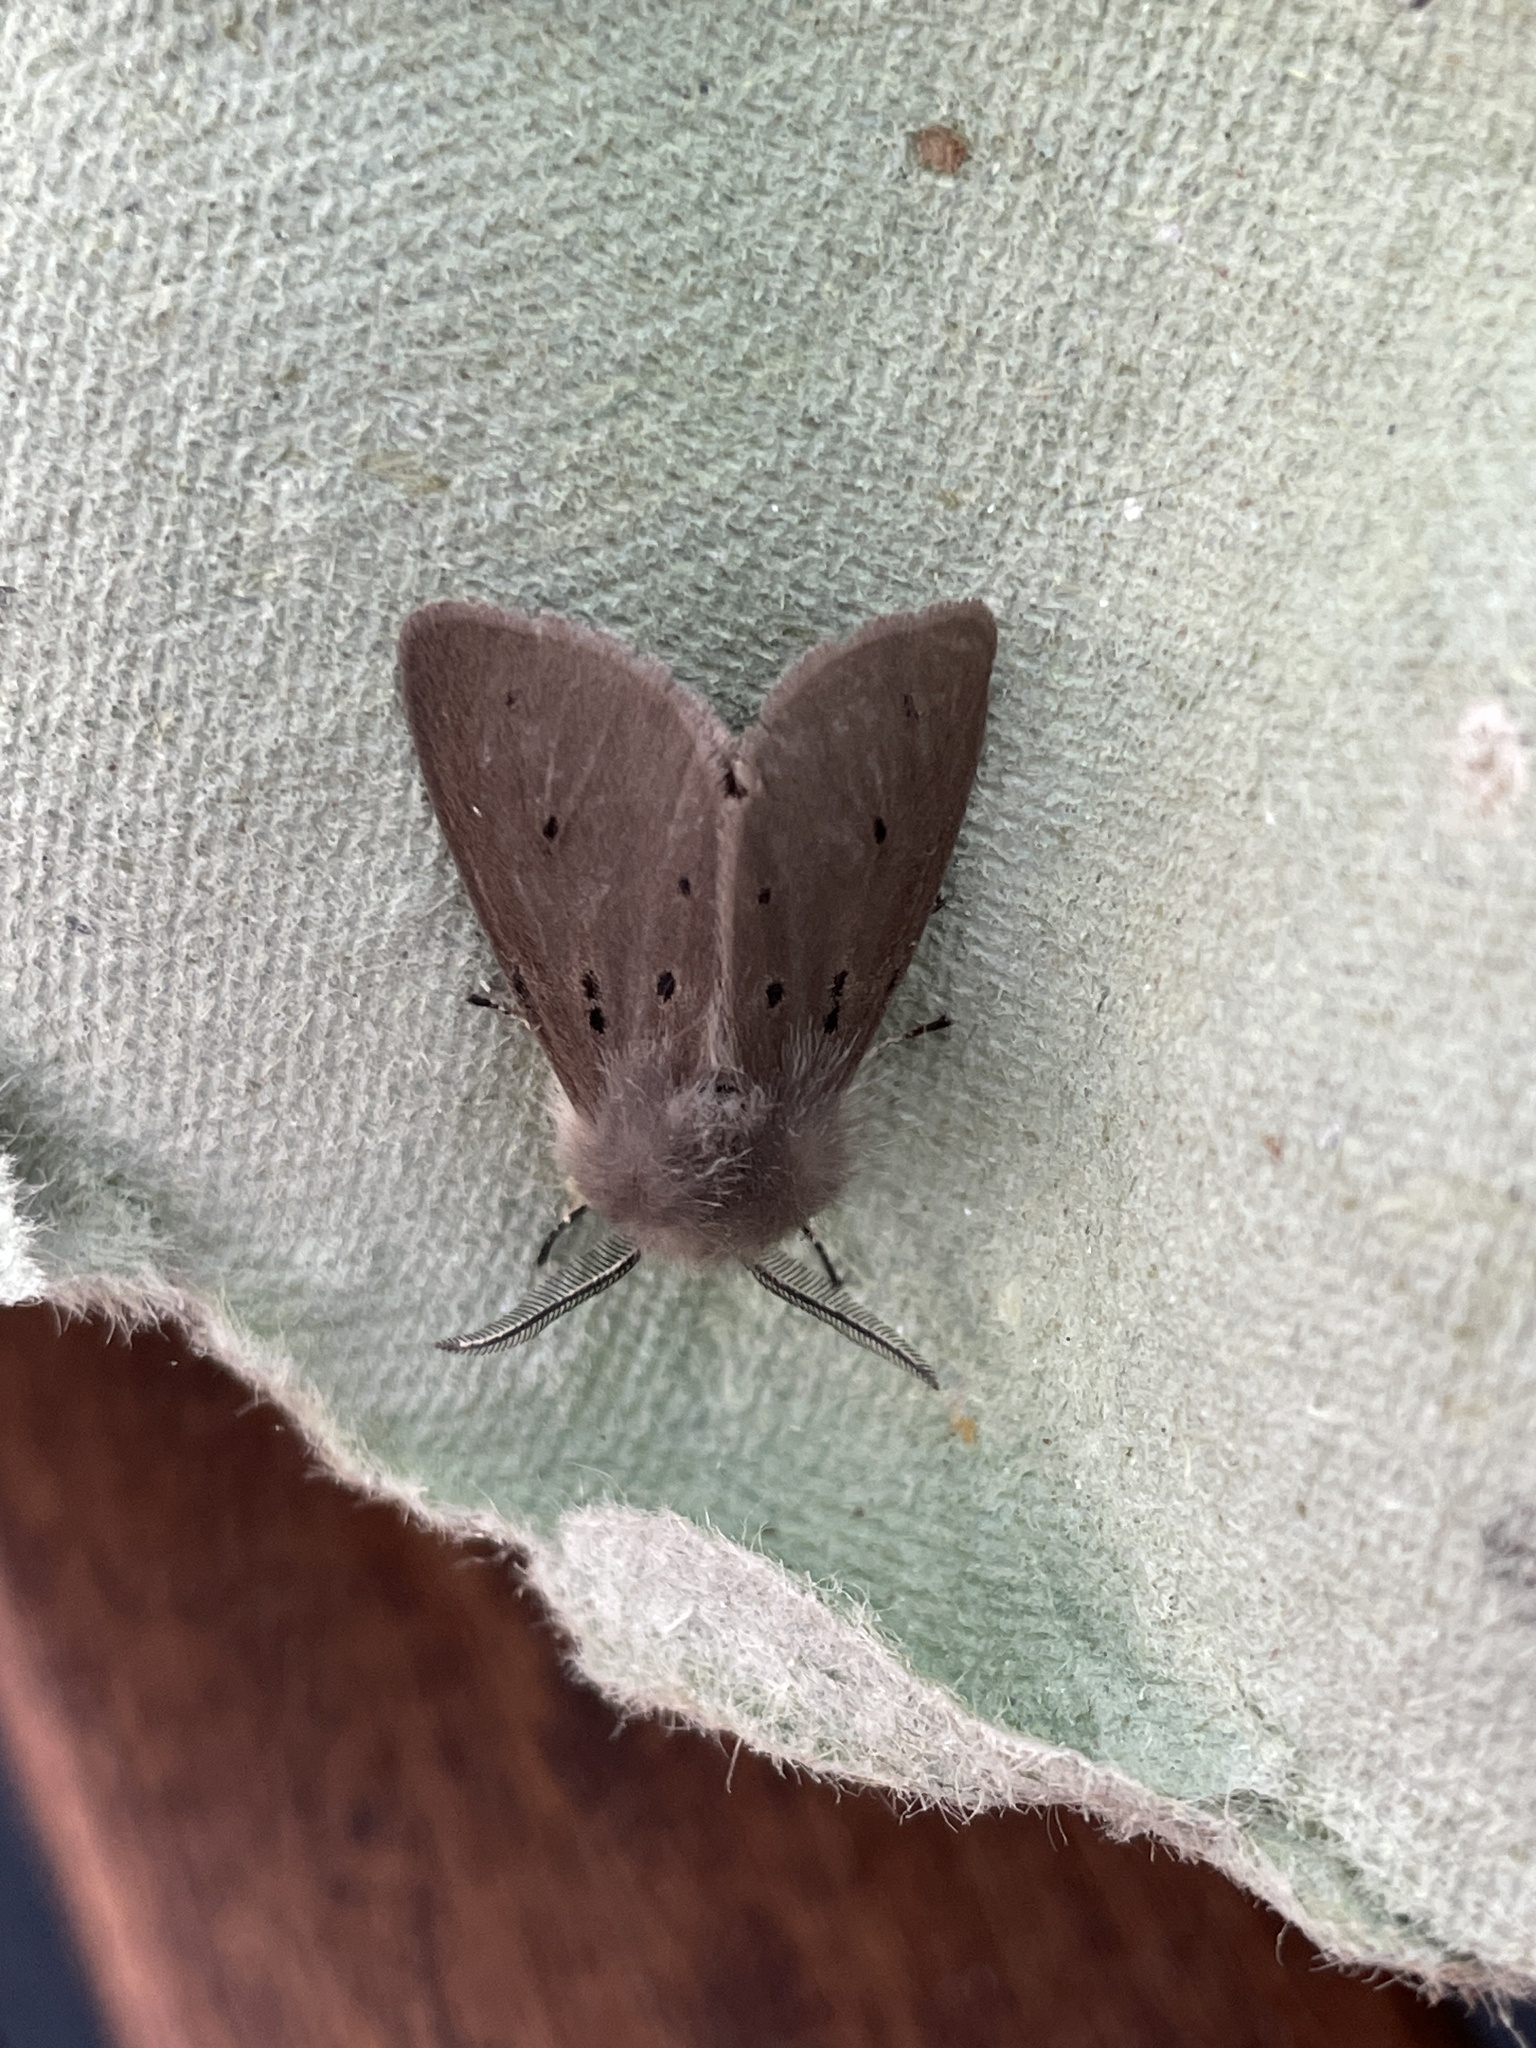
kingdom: Animalia
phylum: Arthropoda
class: Insecta
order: Lepidoptera
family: Erebidae
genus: Diaphora
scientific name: Diaphora mendica
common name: Muslin moth
